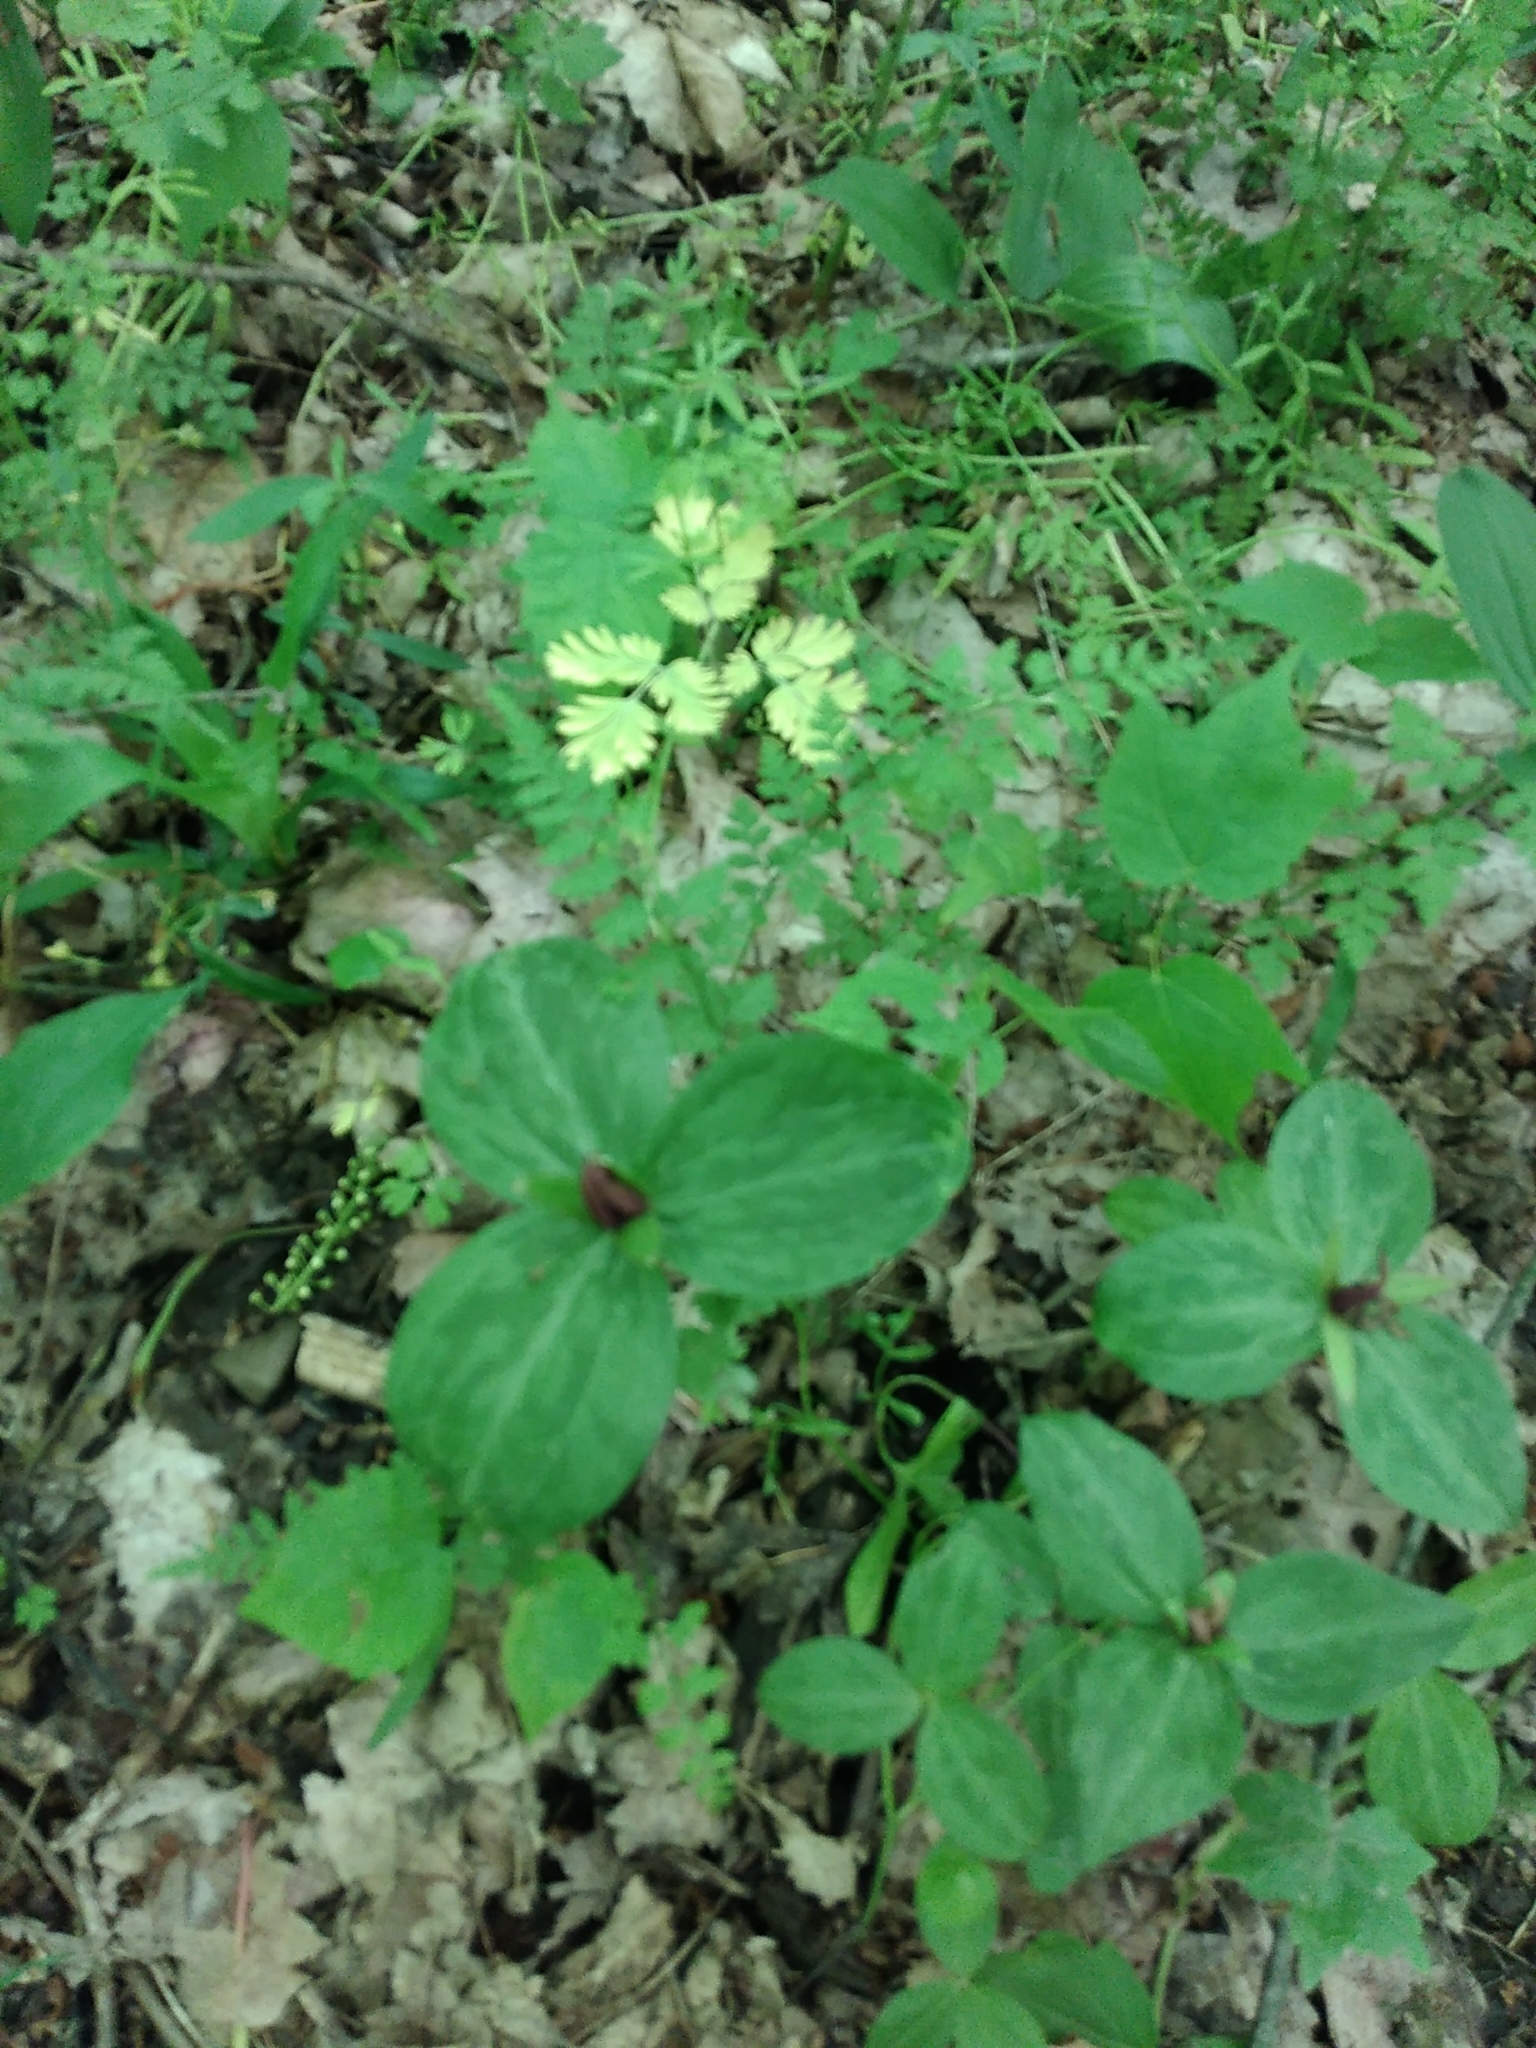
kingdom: Plantae
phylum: Tracheophyta
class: Liliopsida
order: Liliales
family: Melanthiaceae
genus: Trillium
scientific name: Trillium sessile
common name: Sessile trillium
